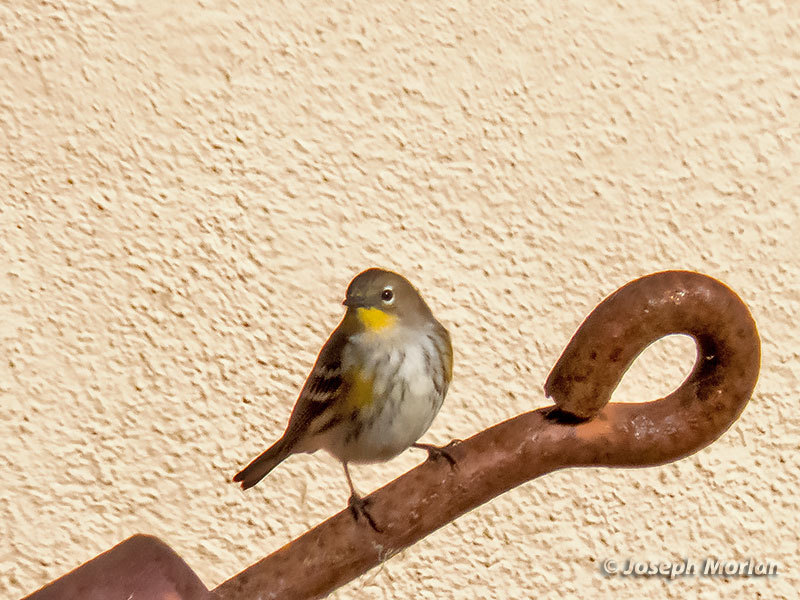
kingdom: Animalia
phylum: Chordata
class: Aves
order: Passeriformes
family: Parulidae
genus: Setophaga
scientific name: Setophaga coronata
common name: Myrtle warbler
